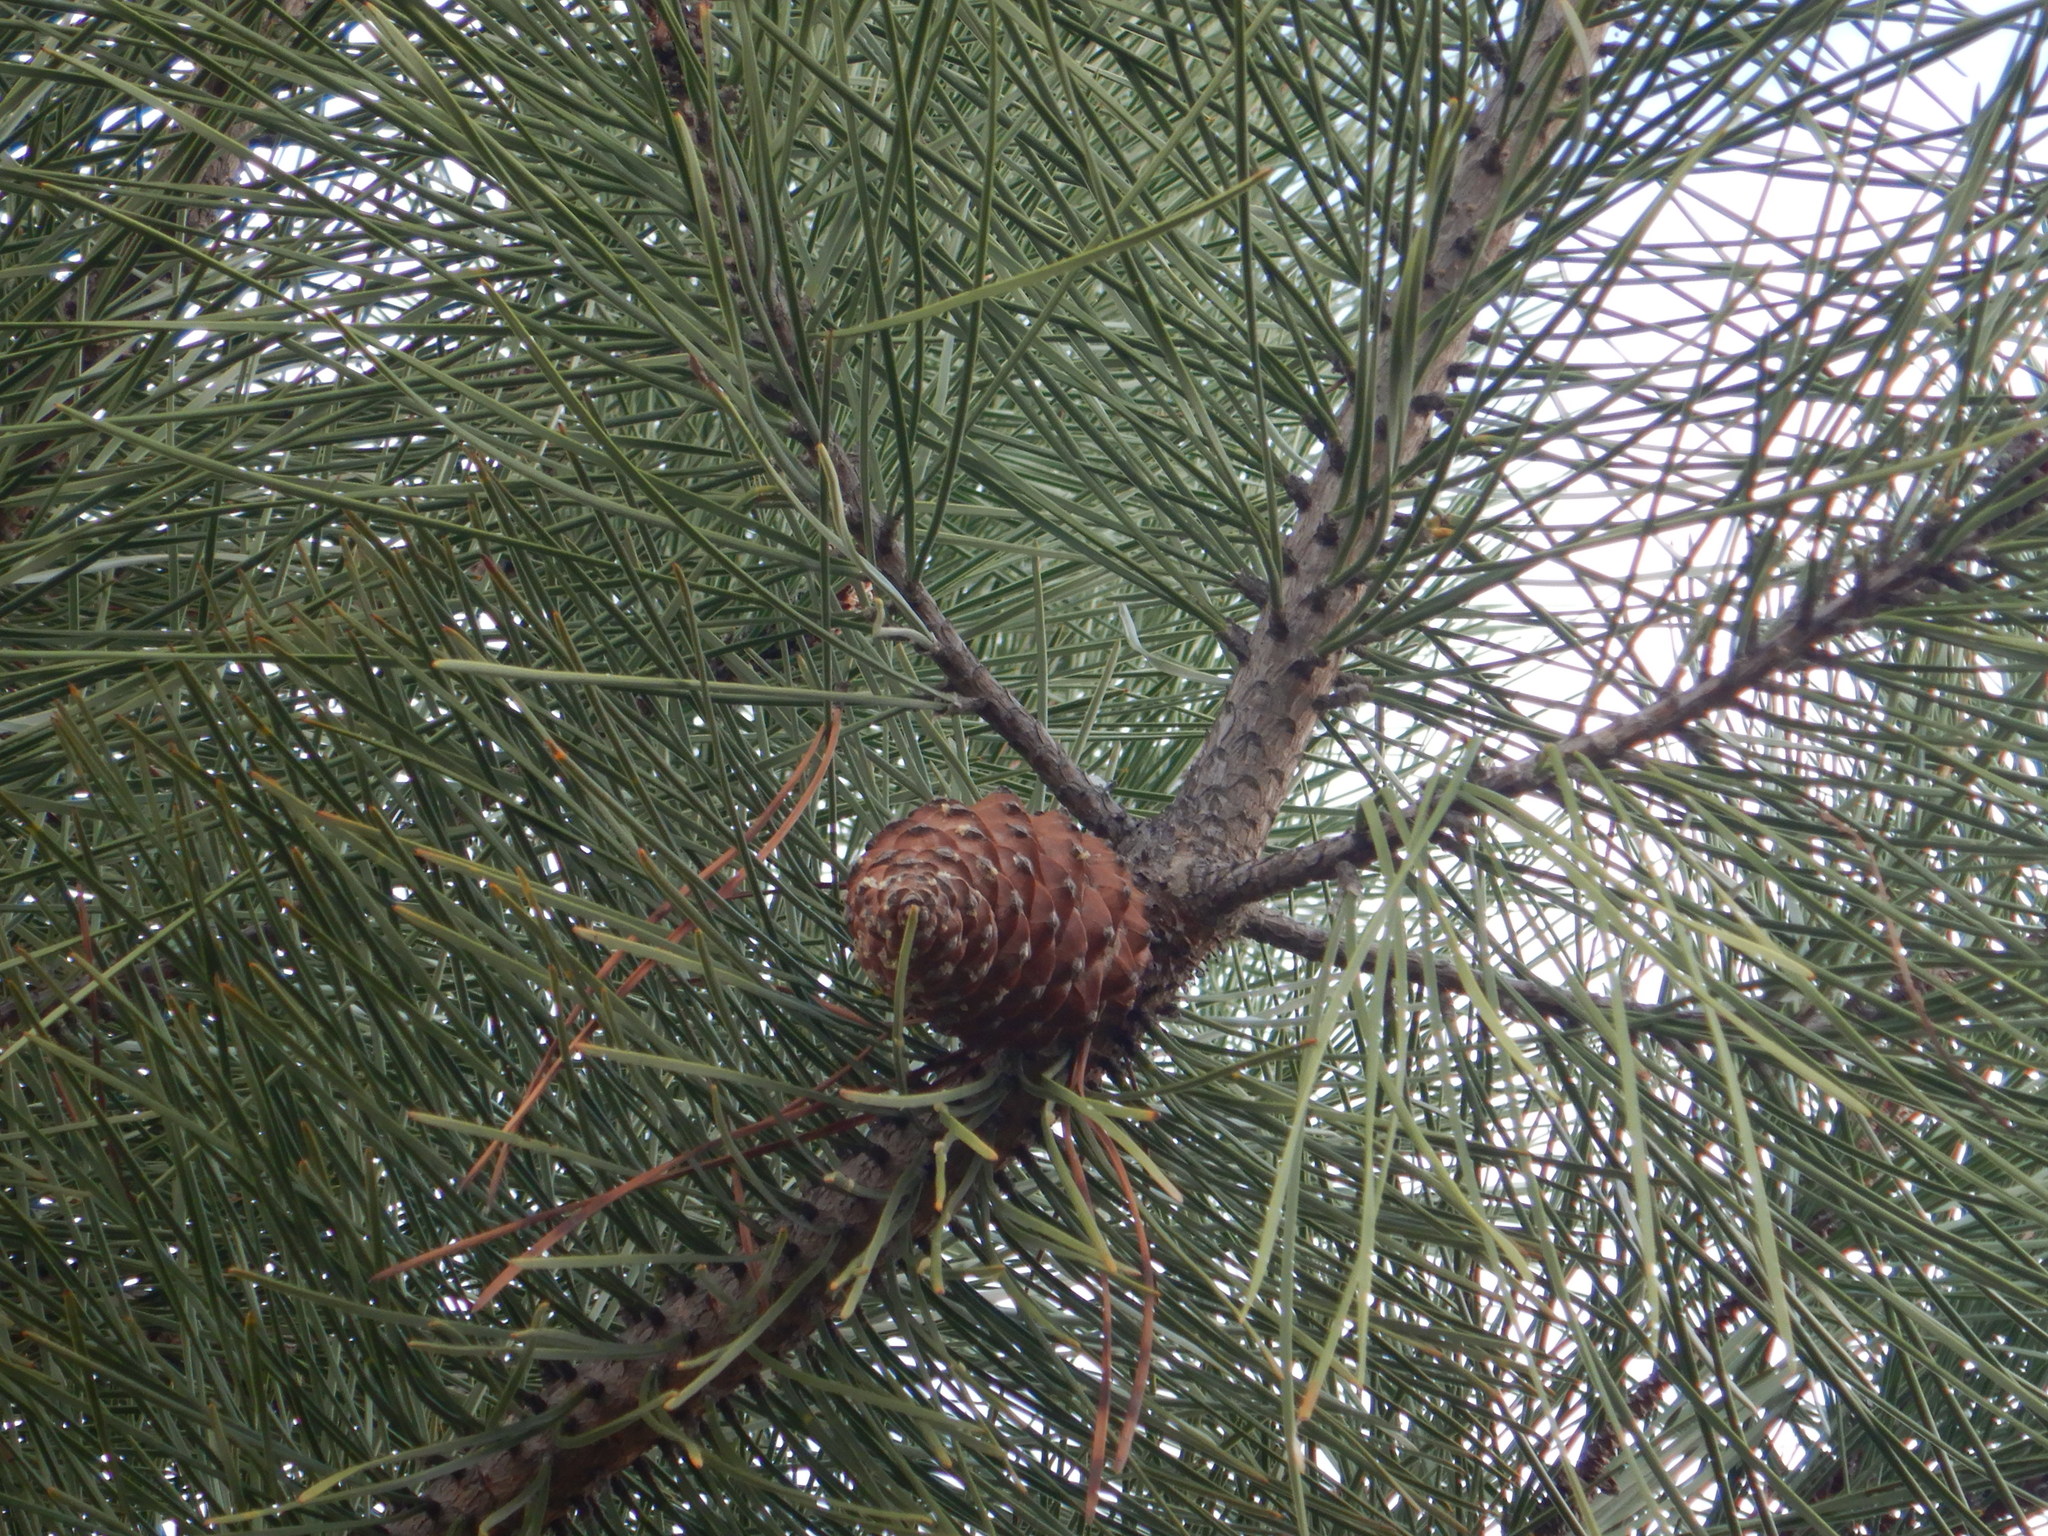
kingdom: Plantae
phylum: Tracheophyta
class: Pinopsida
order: Pinales
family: Pinaceae
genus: Pinus
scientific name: Pinus pinaster
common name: Maritime pine
